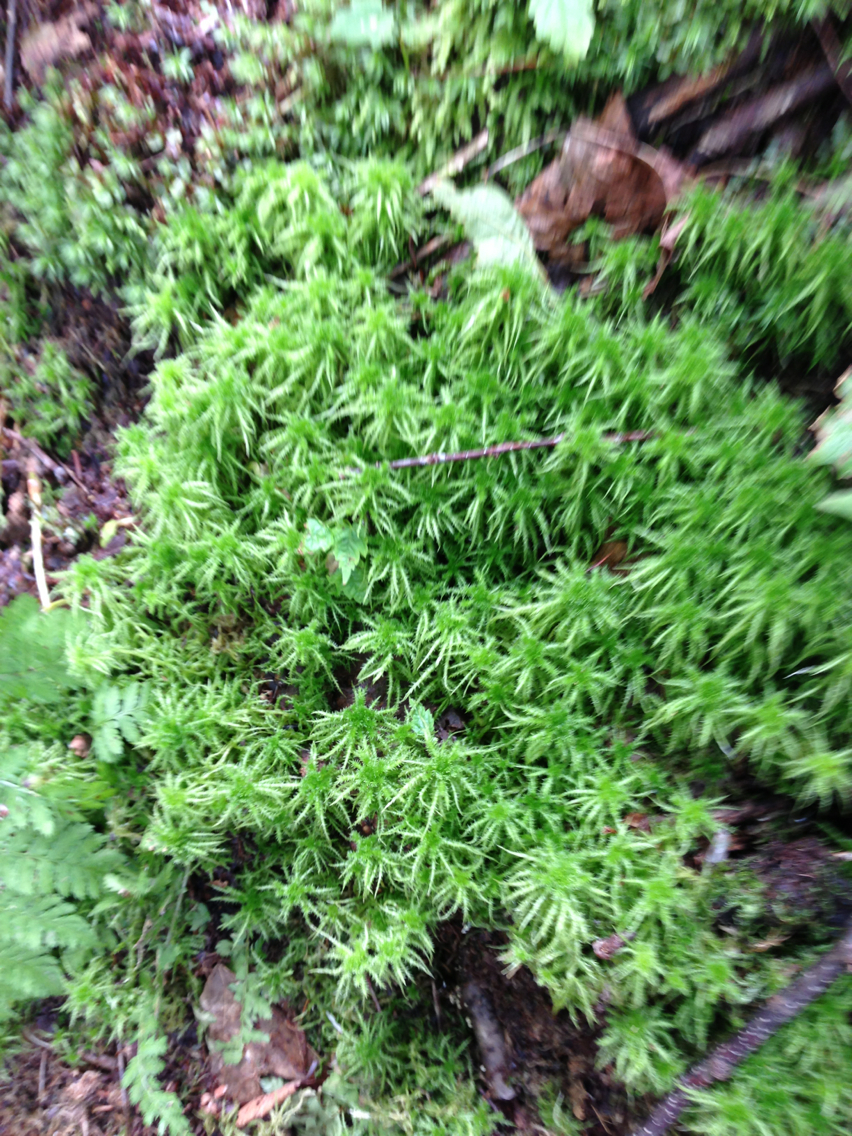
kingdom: Plantae
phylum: Bryophyta
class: Sphagnopsida
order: Sphagnales
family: Sphagnaceae
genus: Sphagnum
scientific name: Sphagnum squarrosum
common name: Shaggy peat moss
